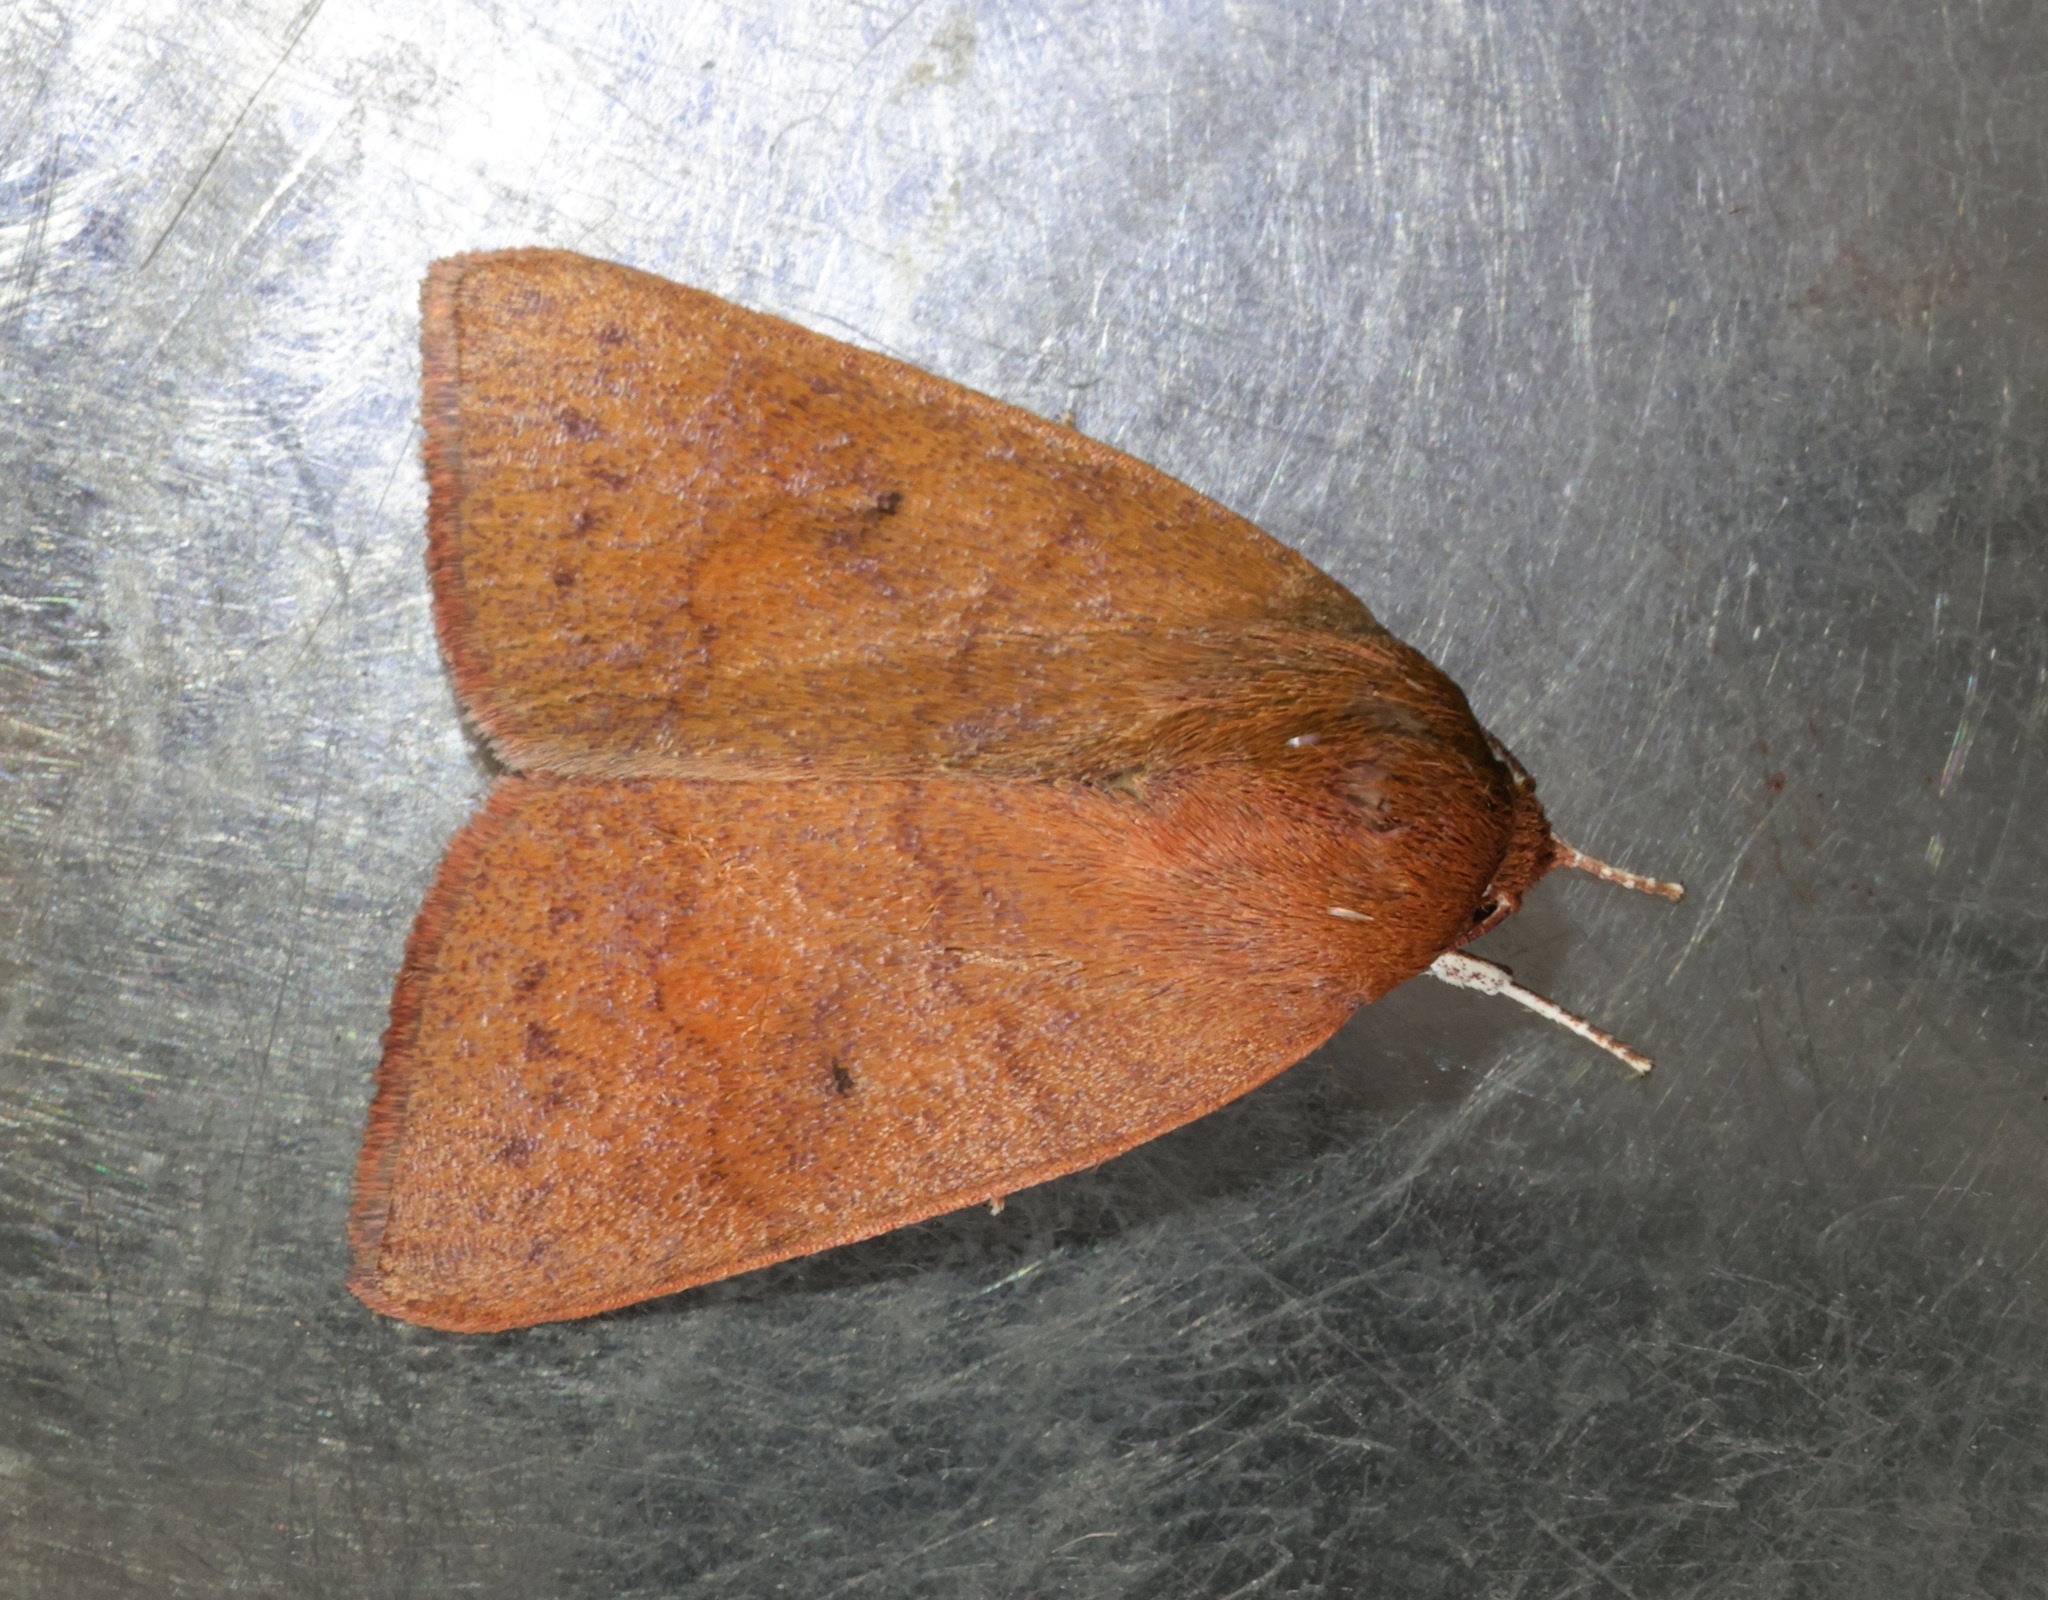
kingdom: Animalia
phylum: Arthropoda
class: Insecta
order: Lepidoptera
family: Nolidae
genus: Calymera
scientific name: Calymera
